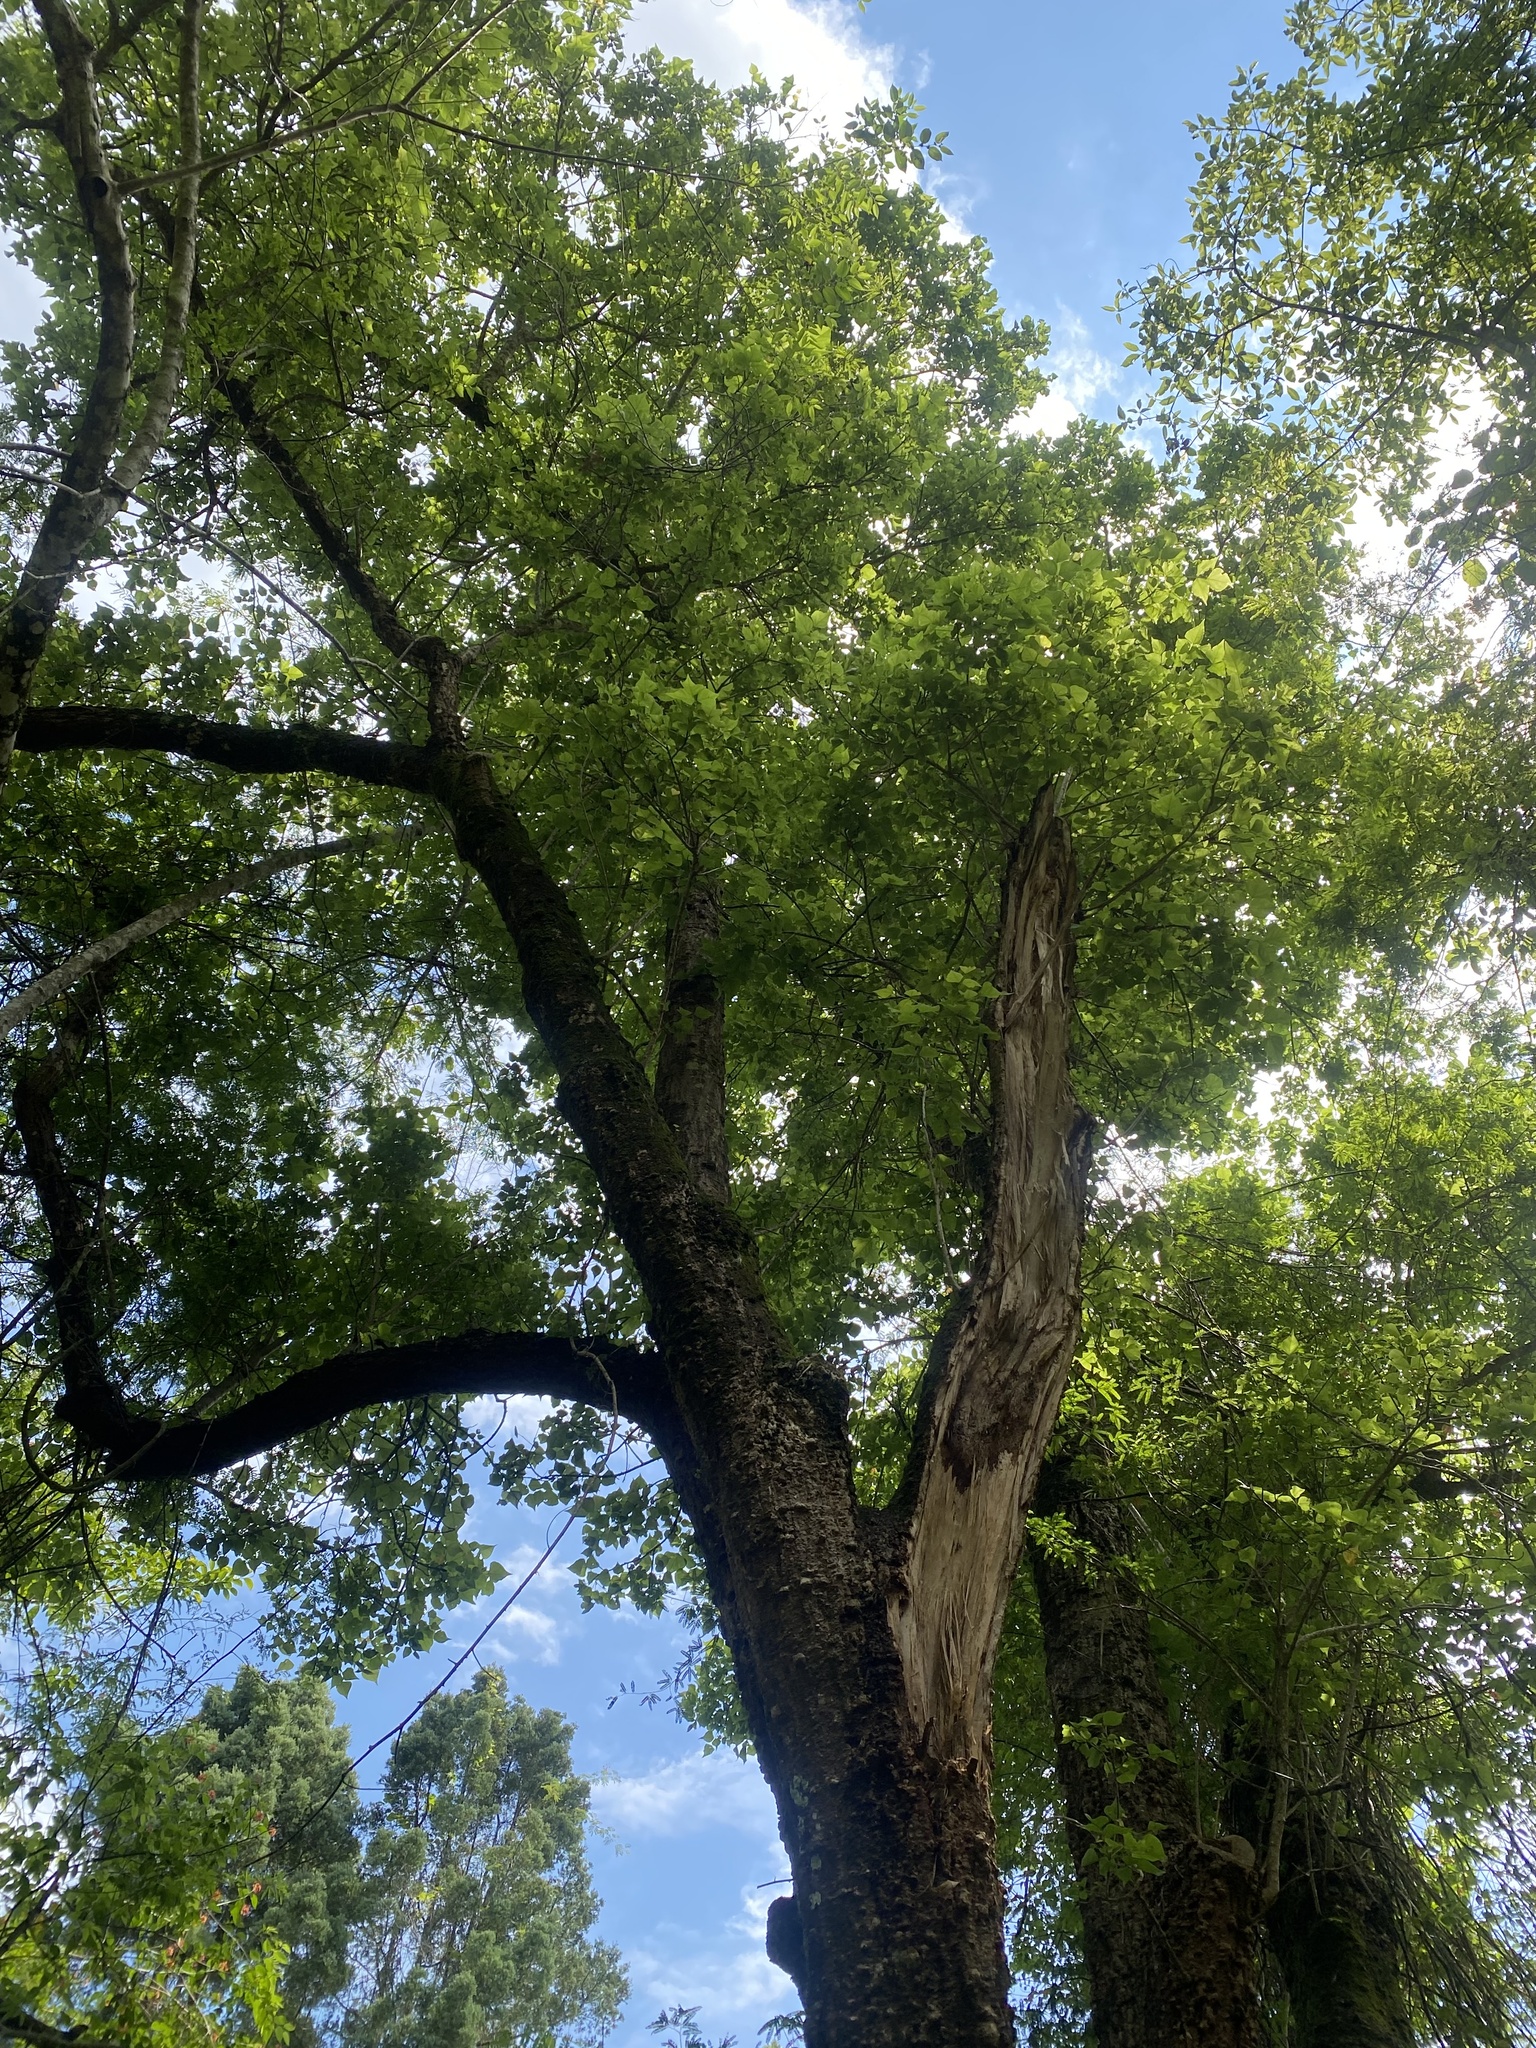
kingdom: Plantae
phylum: Tracheophyta
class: Magnoliopsida
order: Fabales
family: Fabaceae
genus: Erythrina
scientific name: Erythrina lysistemon
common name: Common coral tree
